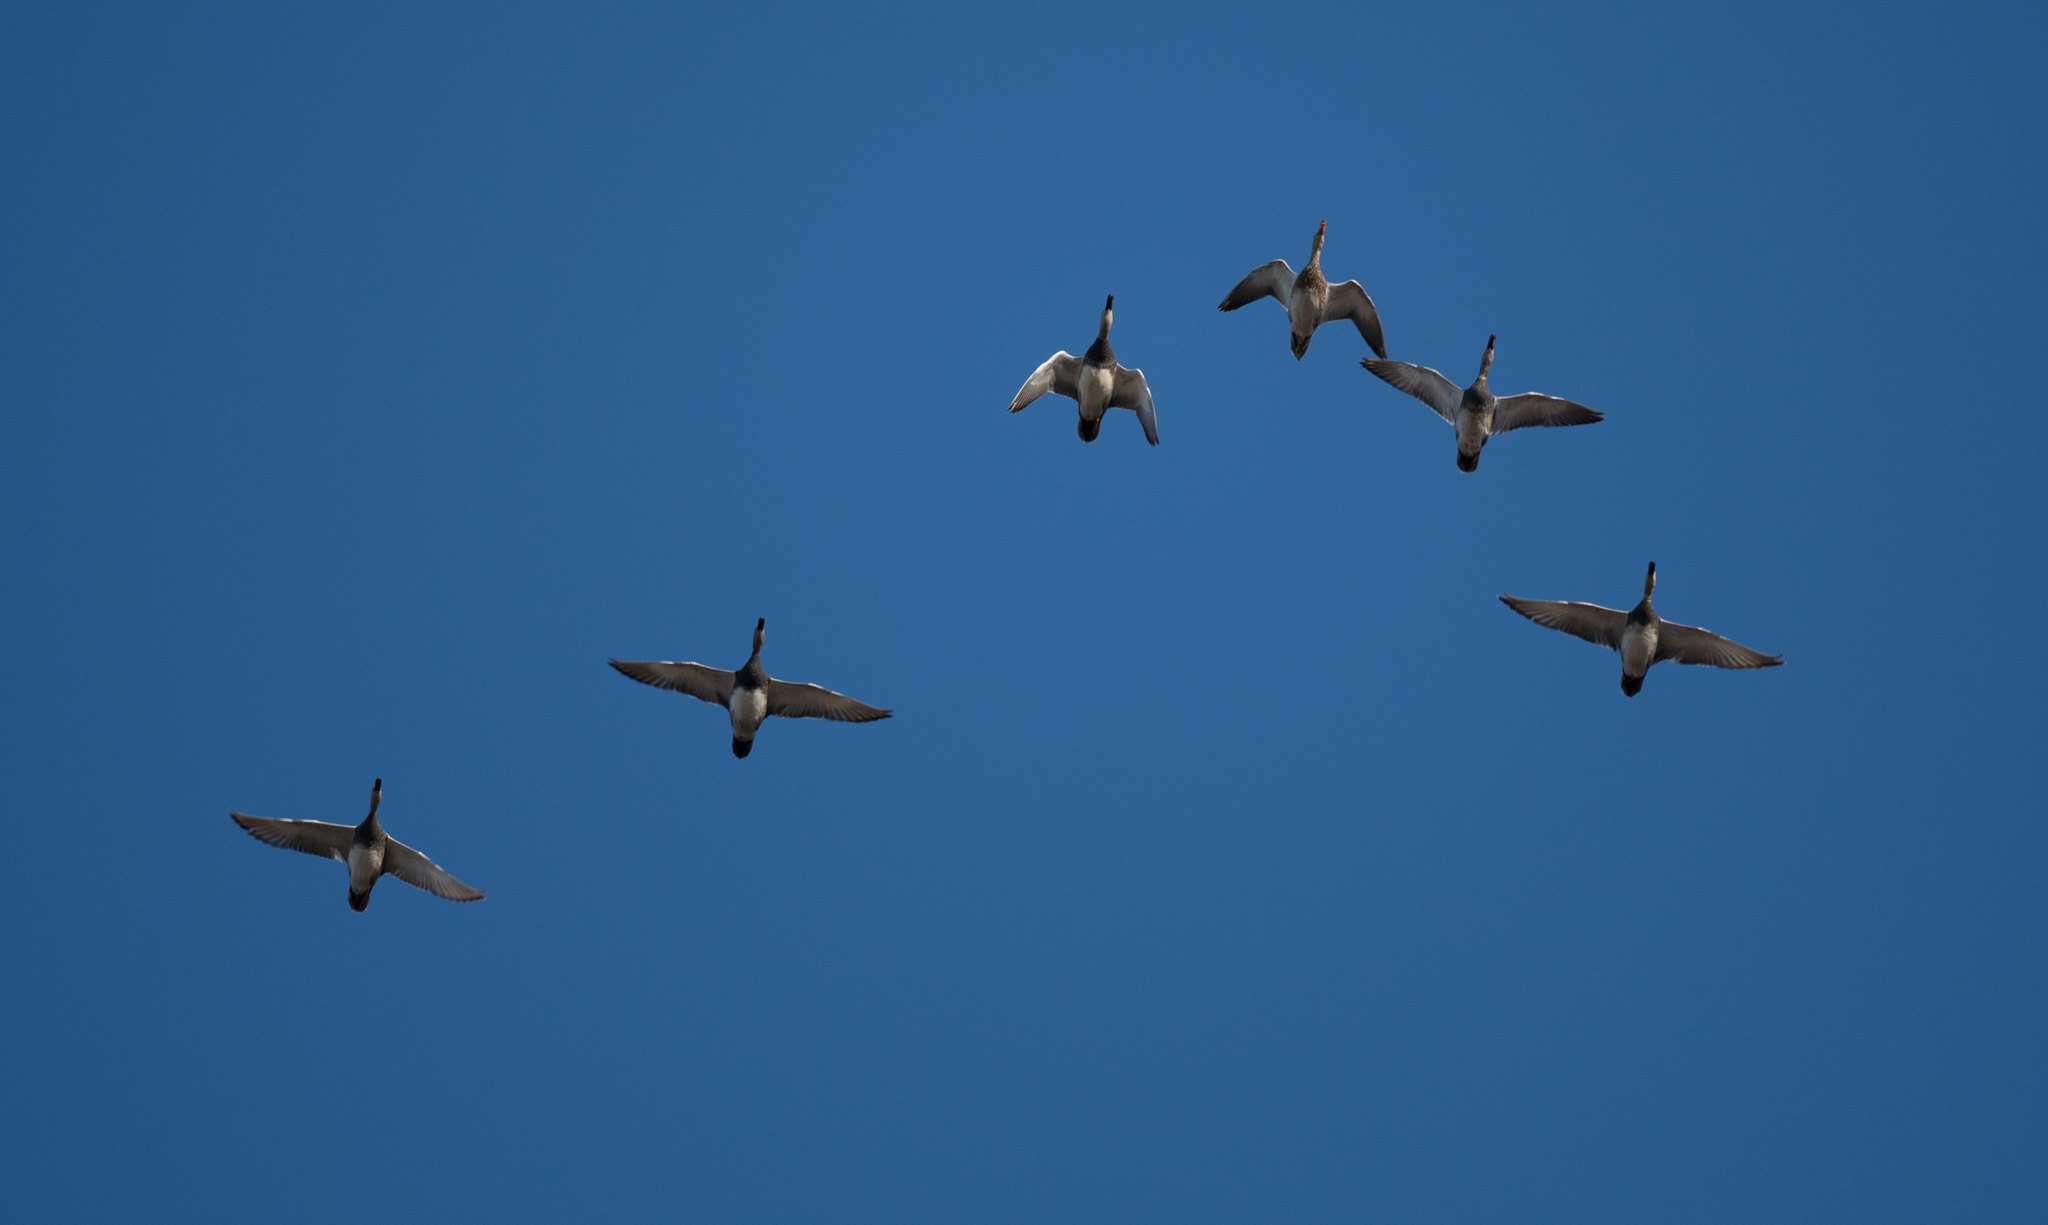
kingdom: Animalia
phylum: Chordata
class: Aves
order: Anseriformes
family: Anatidae
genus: Mareca
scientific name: Mareca strepera
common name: Gadwall
